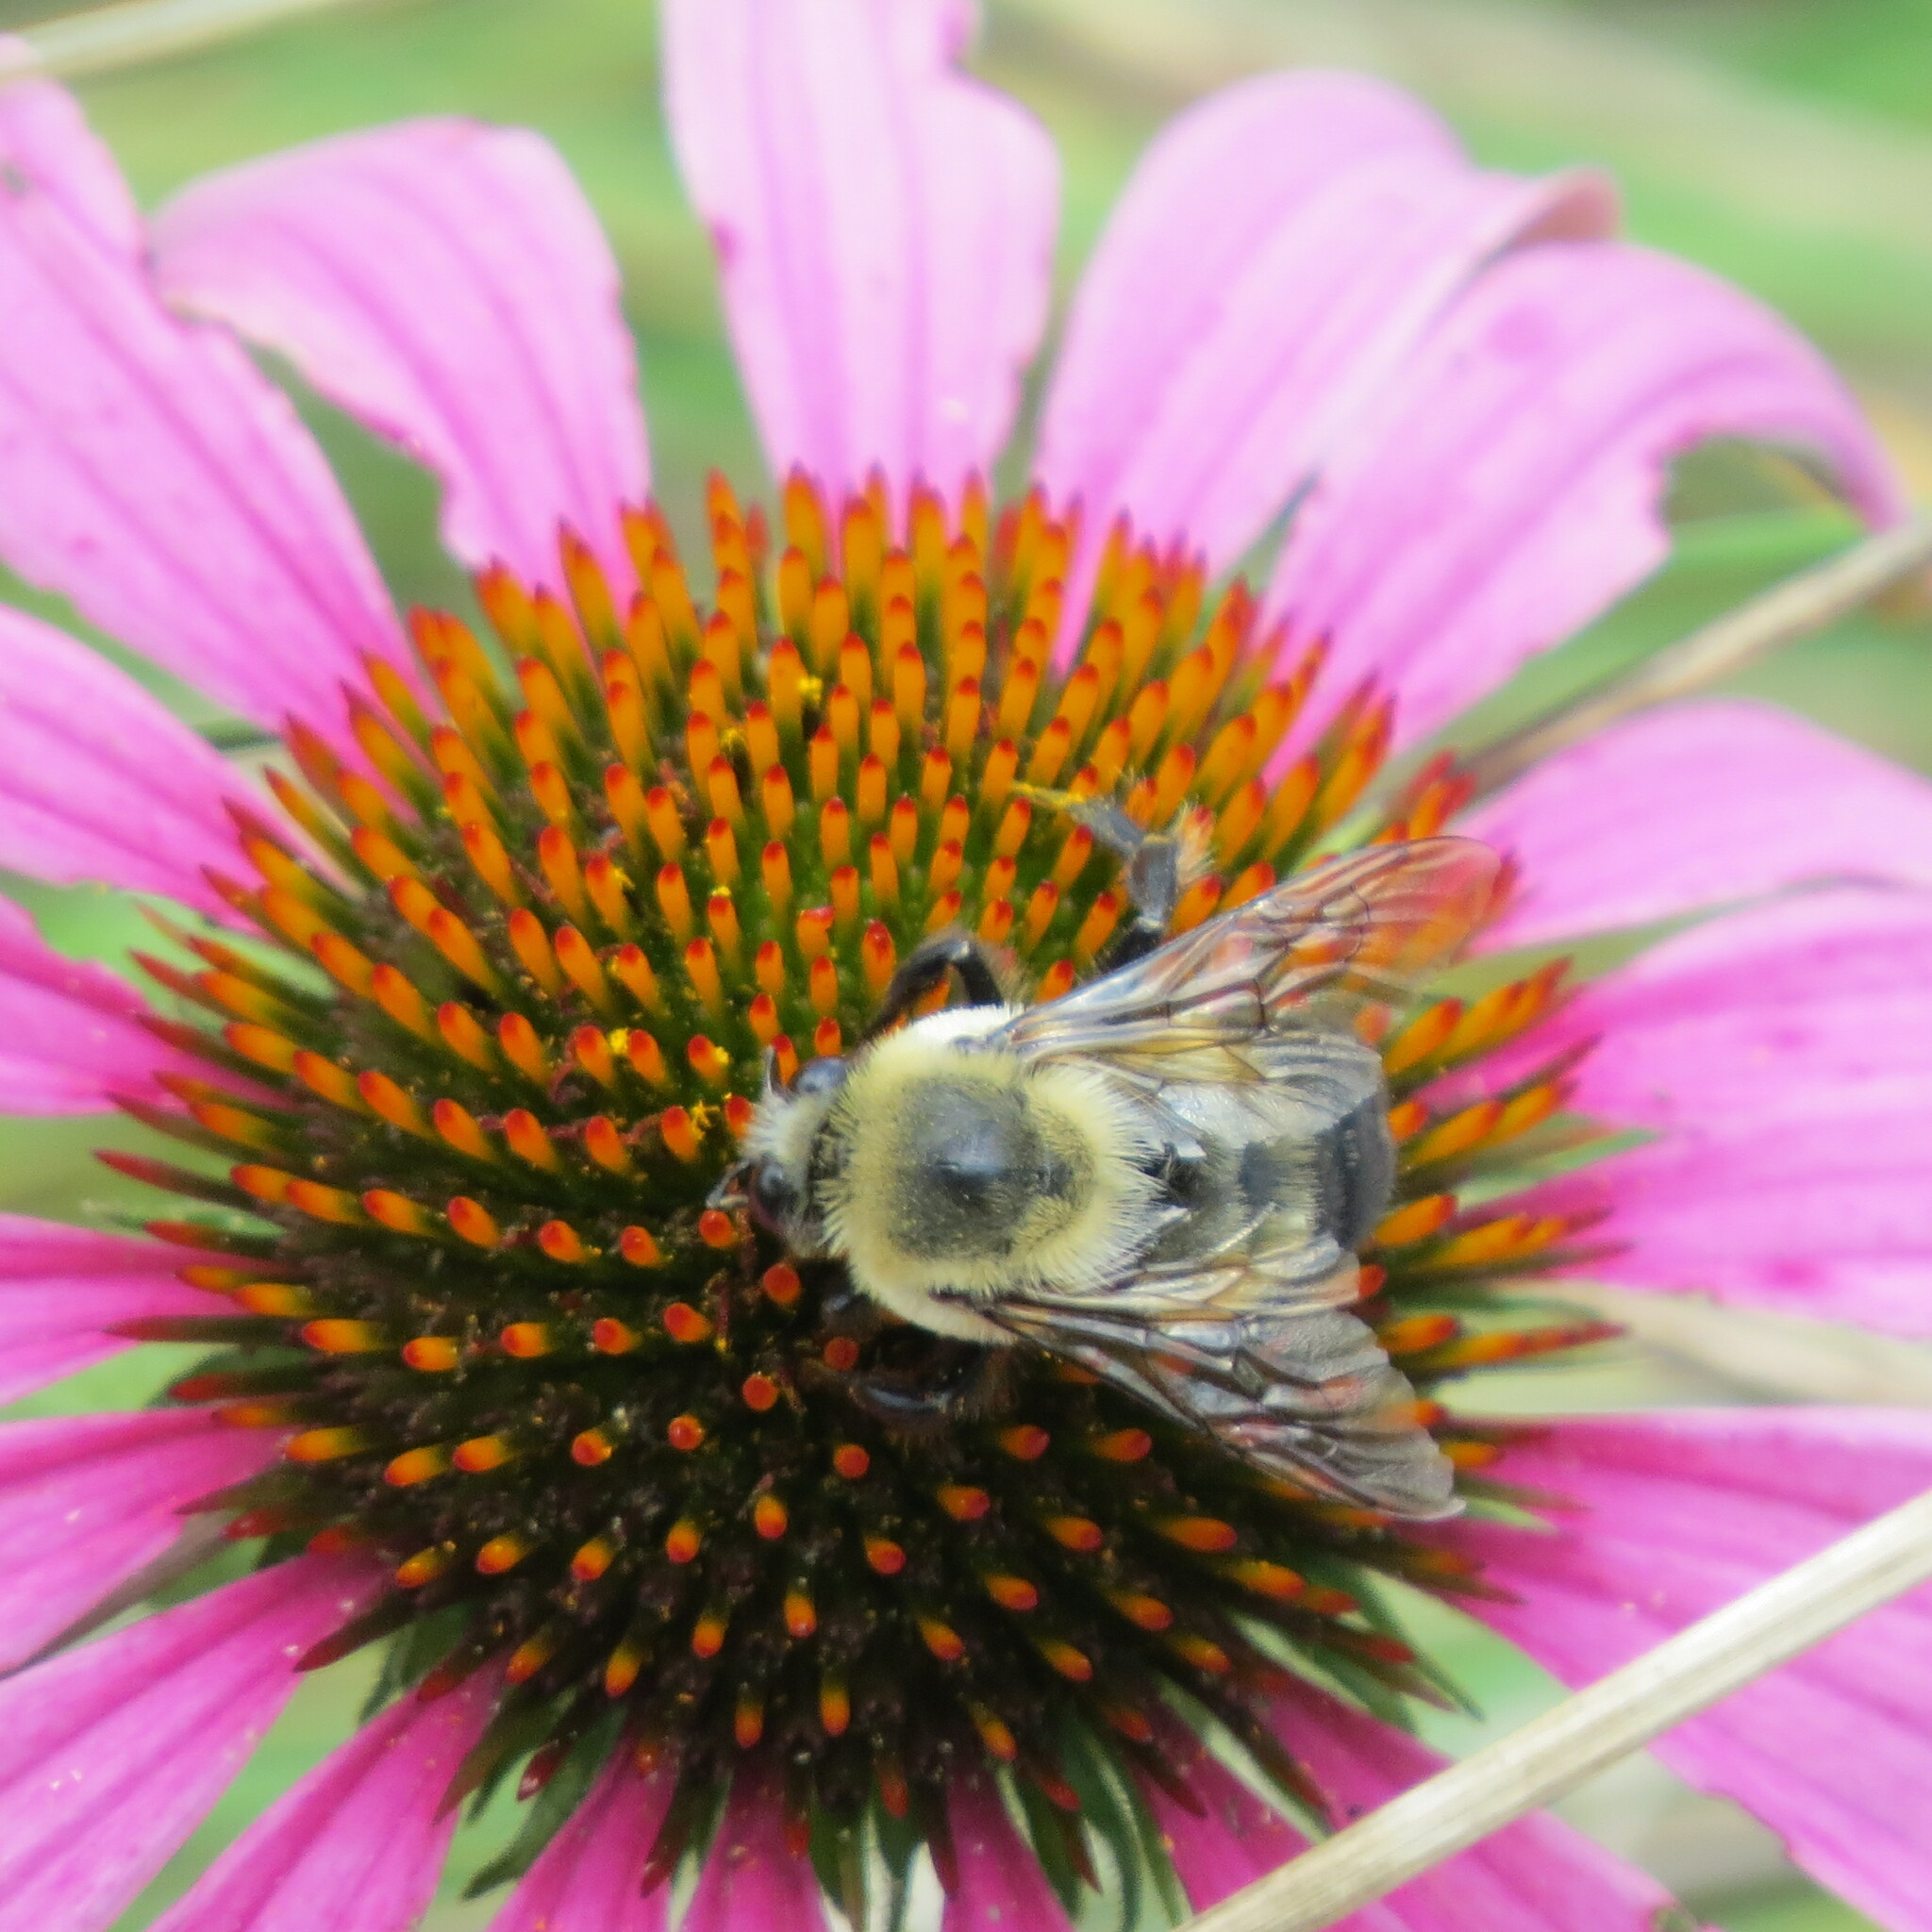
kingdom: Animalia
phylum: Arthropoda
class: Insecta
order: Hymenoptera
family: Apidae
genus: Bombus
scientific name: Bombus griseocollis
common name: Brown-belted bumble bee
